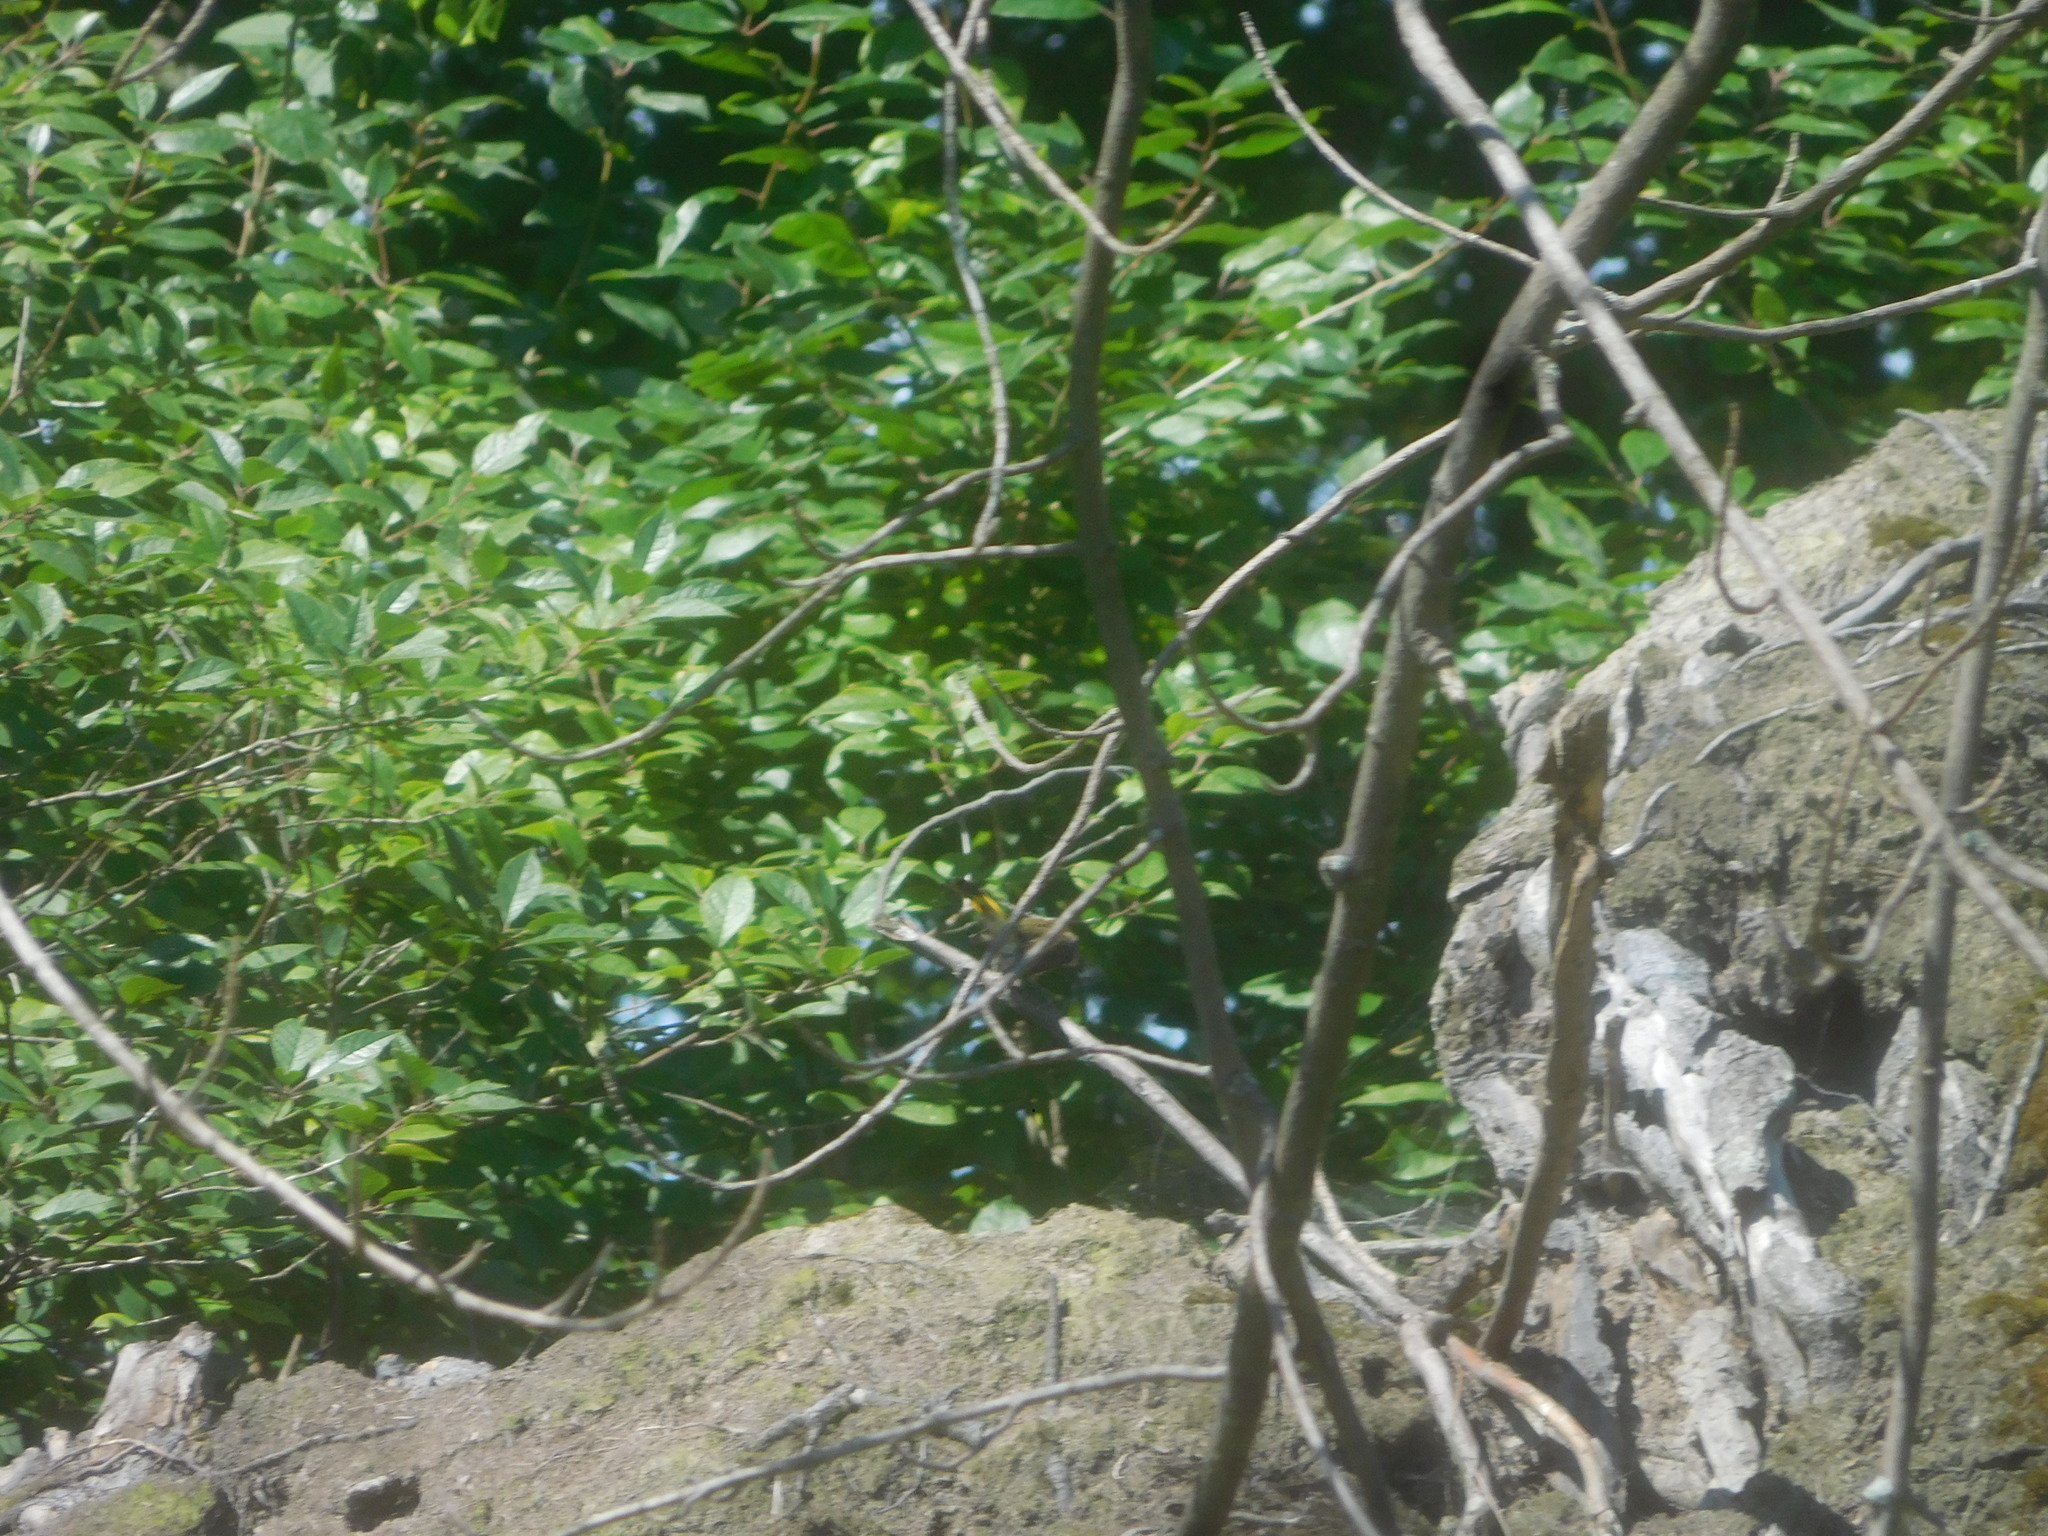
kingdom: Animalia
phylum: Chordata
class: Aves
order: Passeriformes
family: Parulidae
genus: Setophaga
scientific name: Setophaga ruticilla
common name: American redstart
